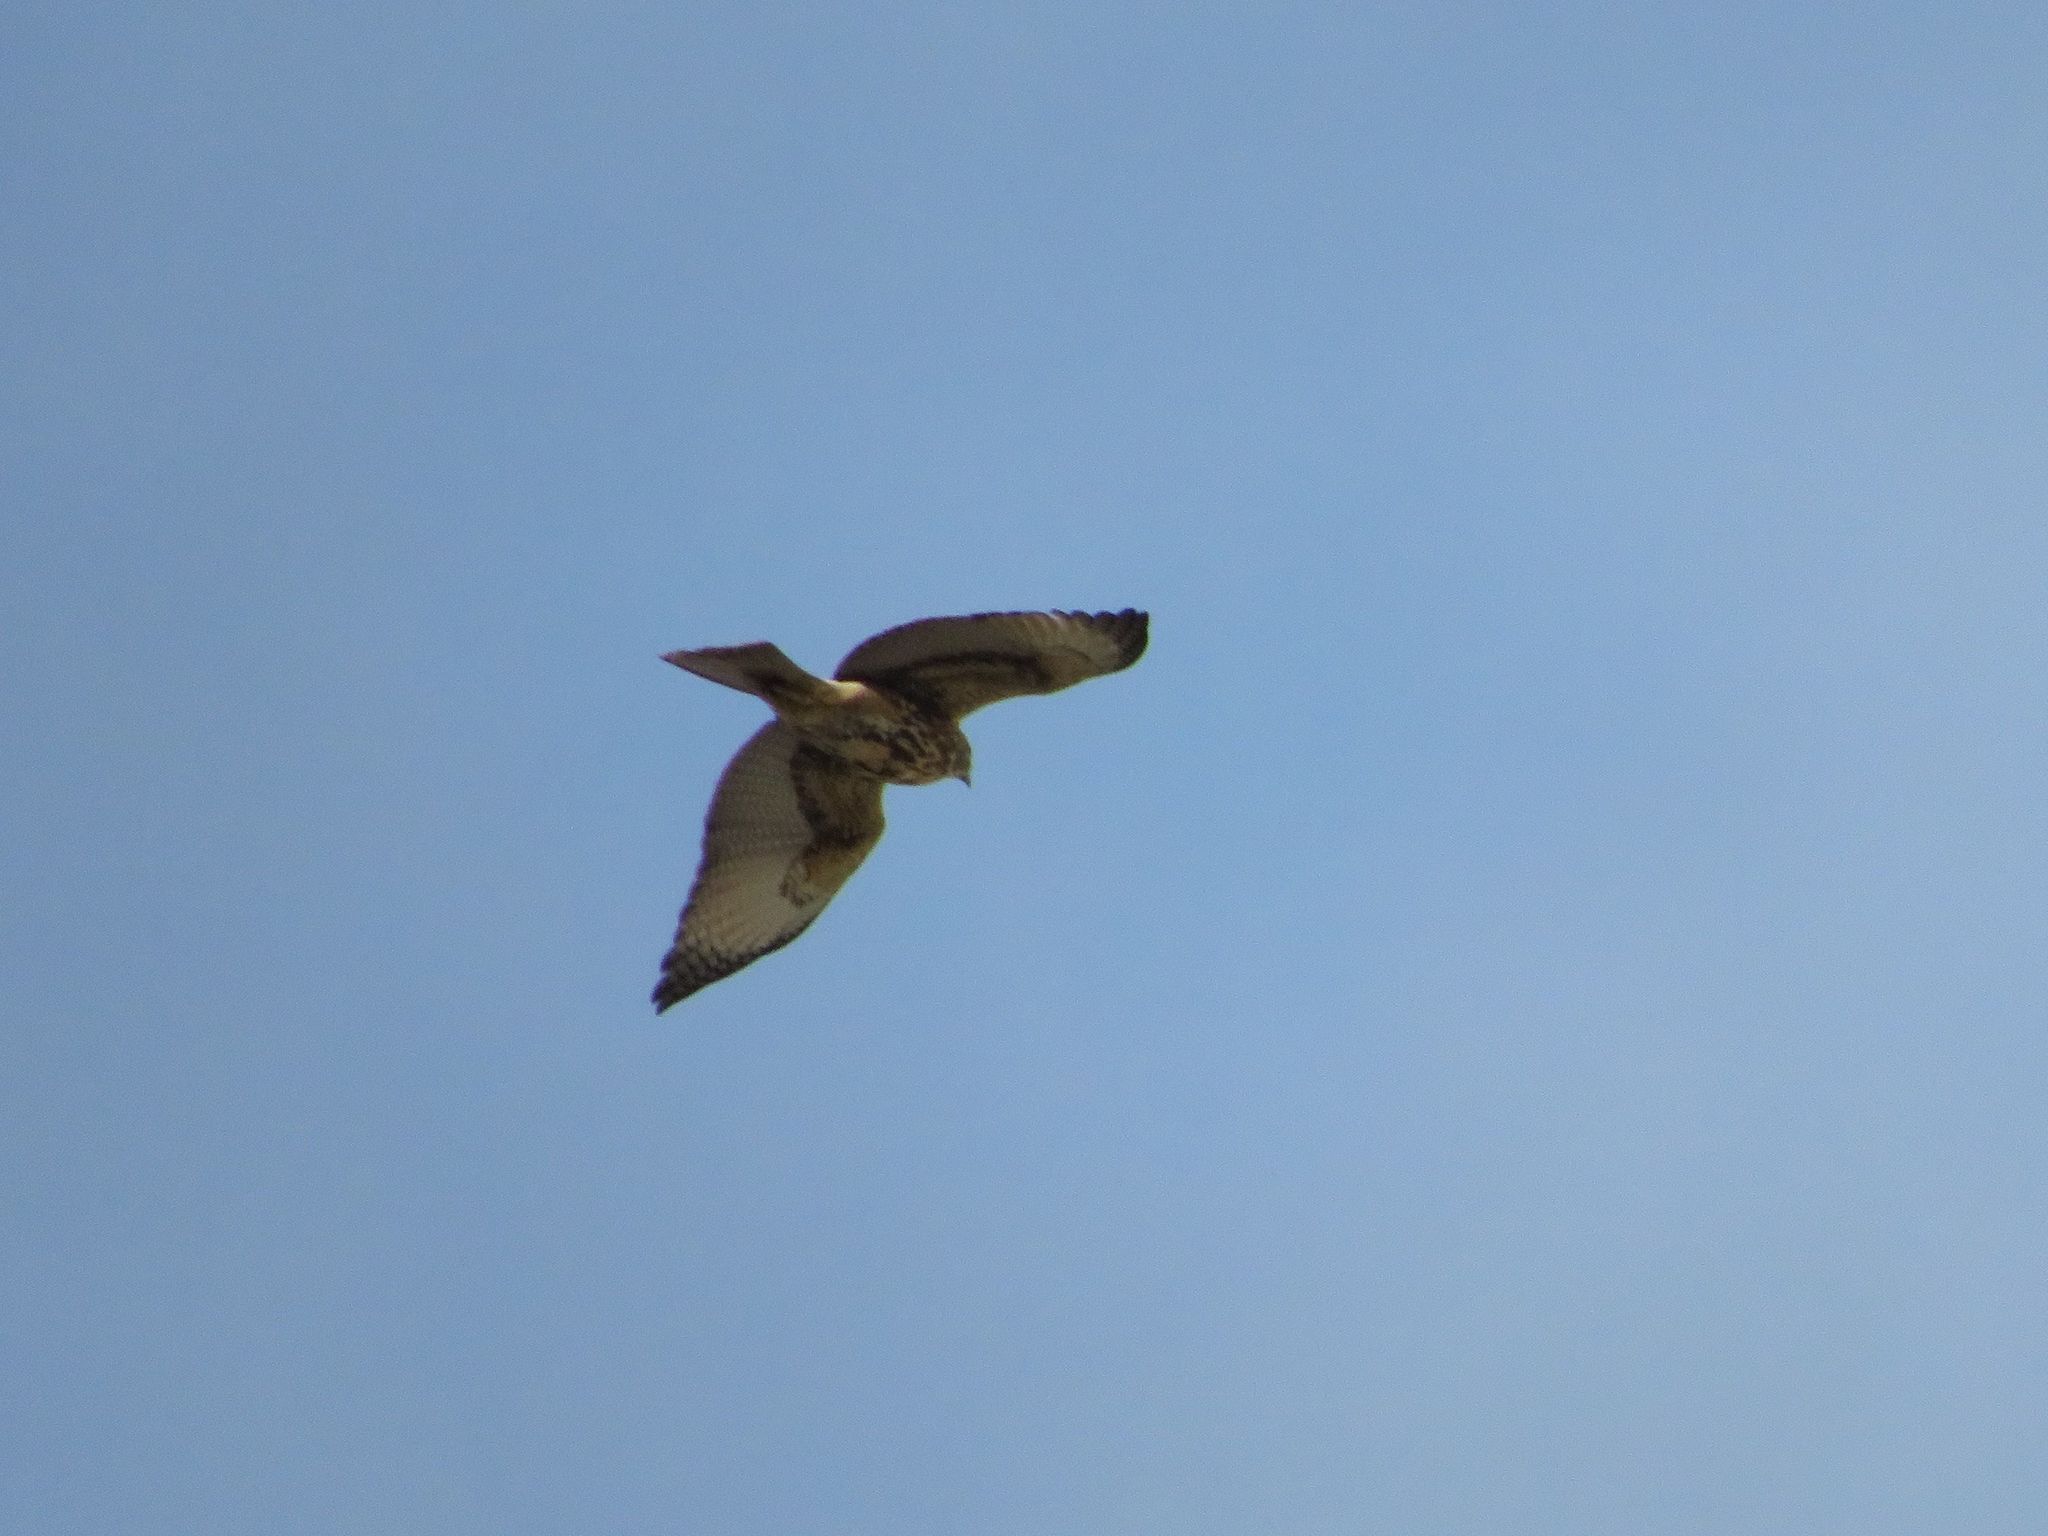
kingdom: Animalia
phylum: Chordata
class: Aves
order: Accipitriformes
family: Accipitridae
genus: Parabuteo
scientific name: Parabuteo unicinctus
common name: Harris's hawk
